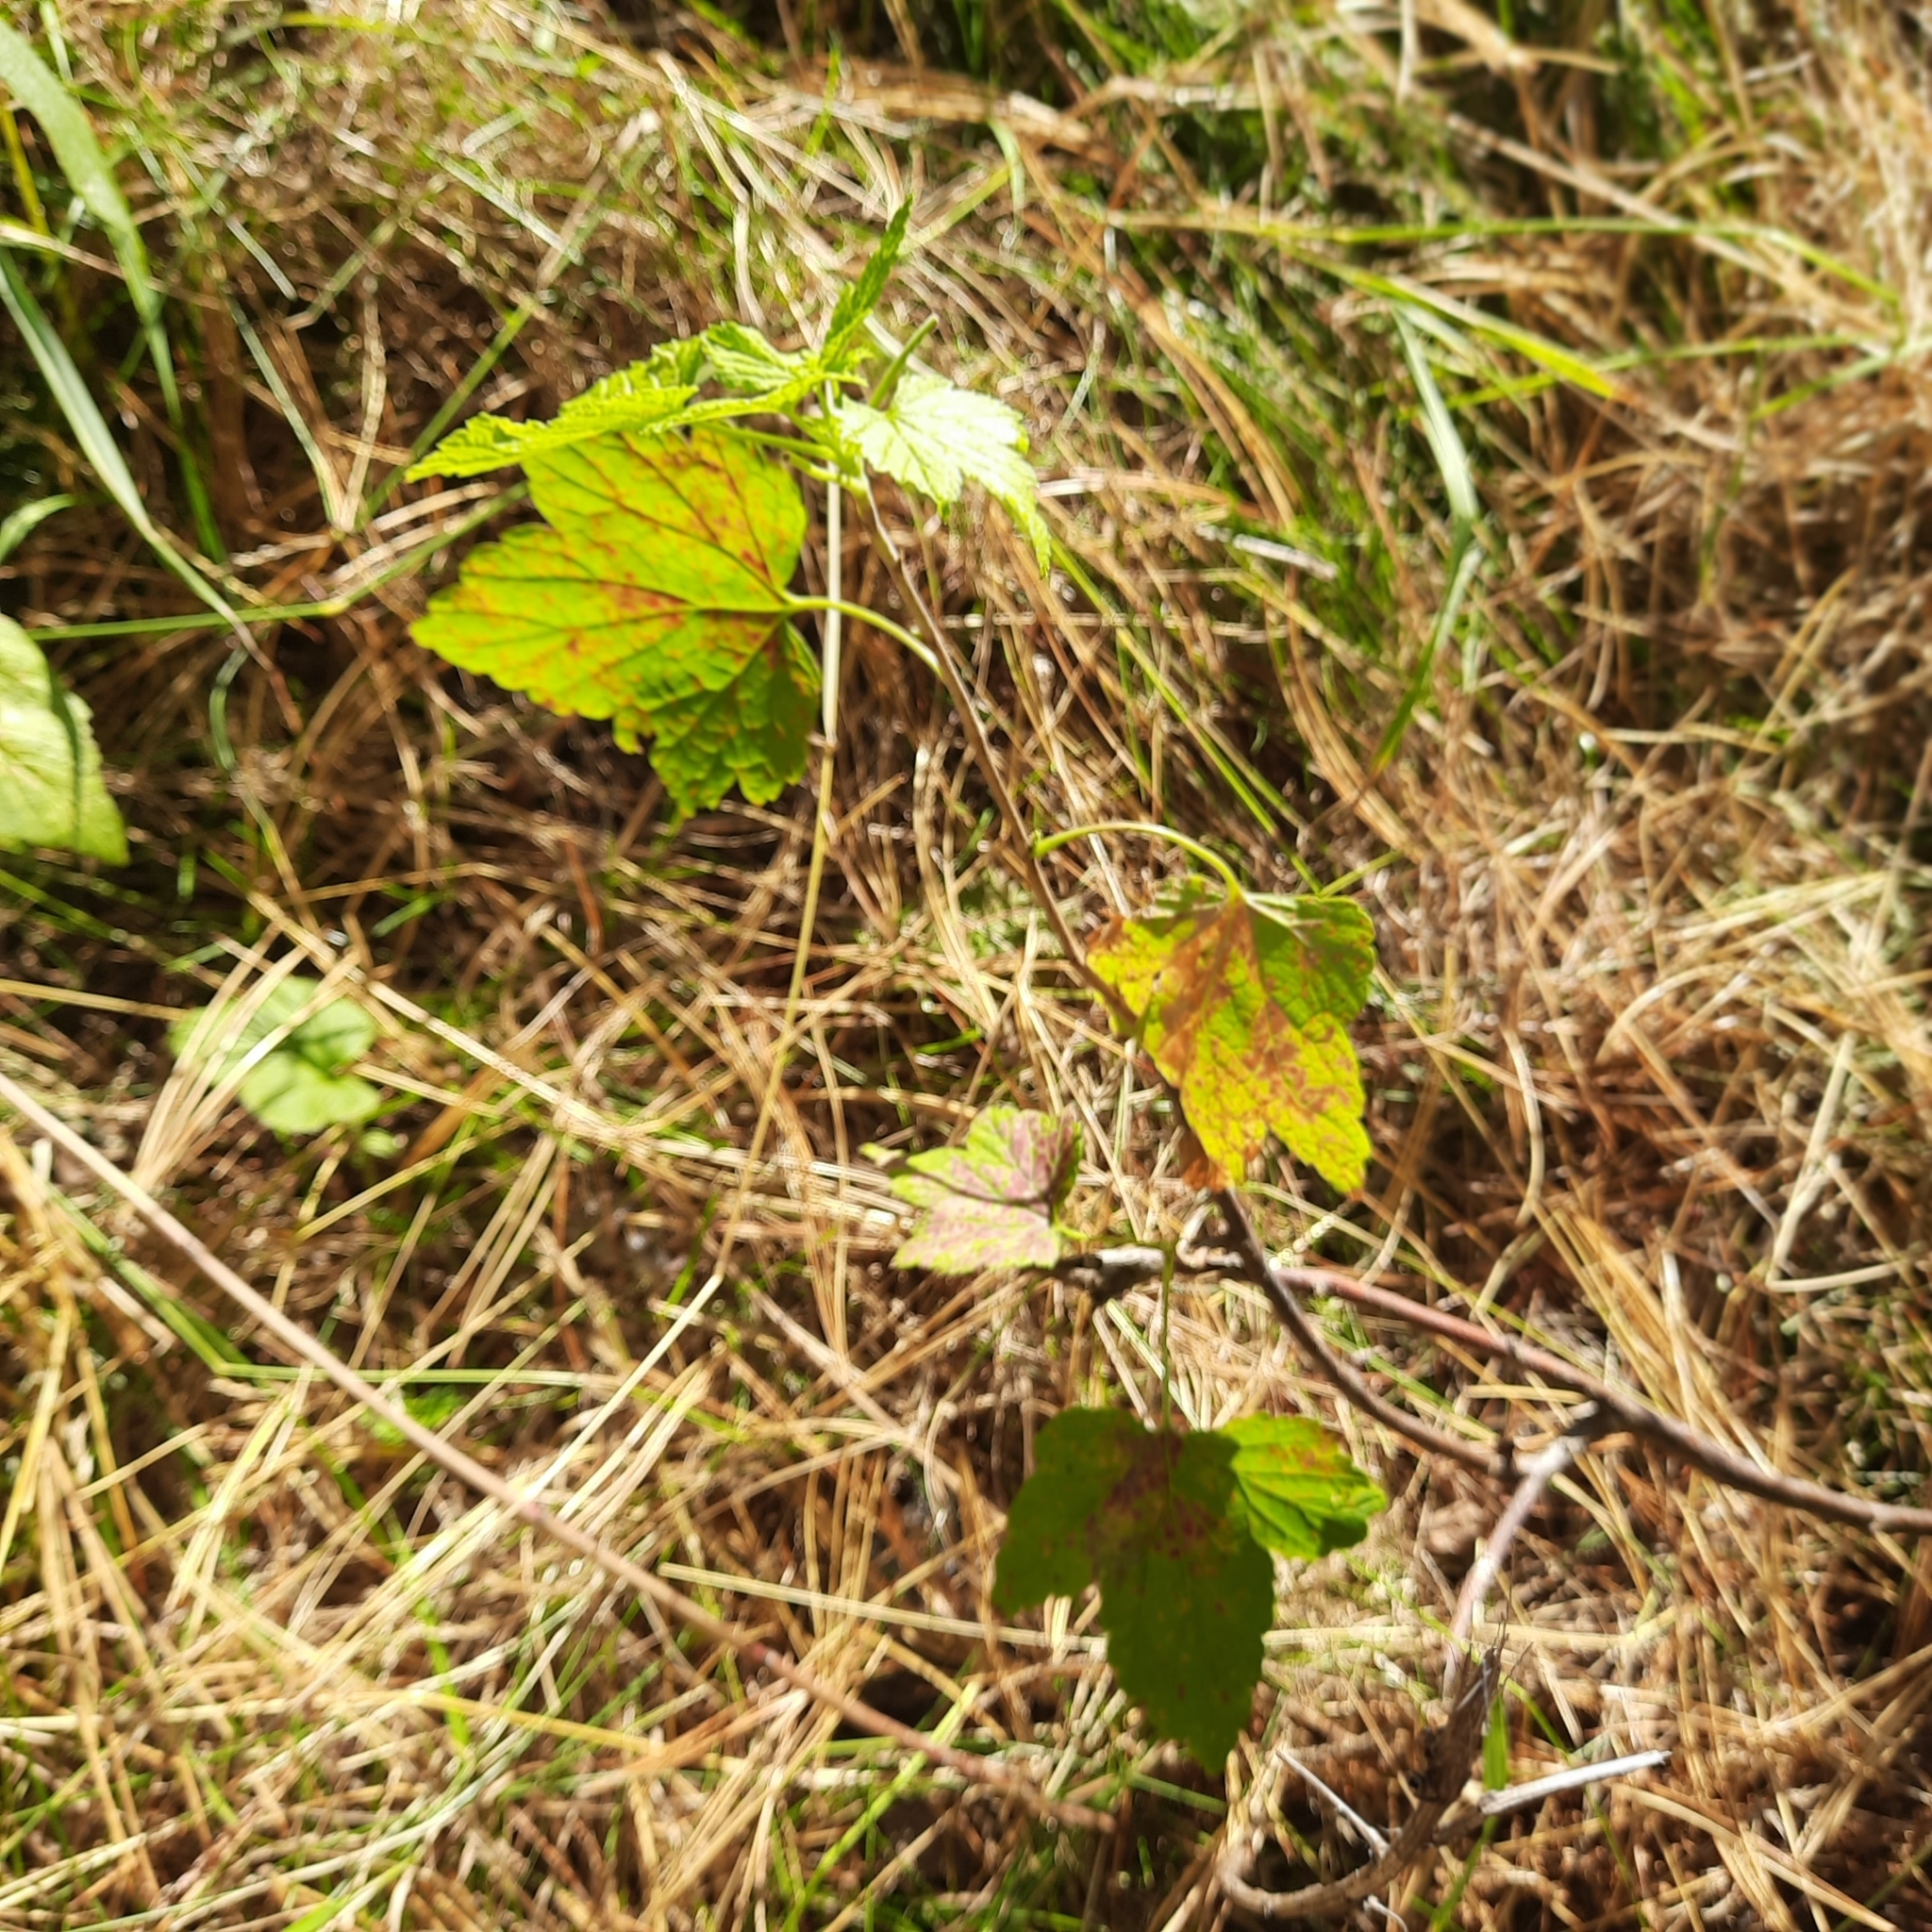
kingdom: Plantae
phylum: Tracheophyta
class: Magnoliopsida
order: Saxifragales
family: Grossulariaceae
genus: Ribes
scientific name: Ribes nigrum
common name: Black currant
